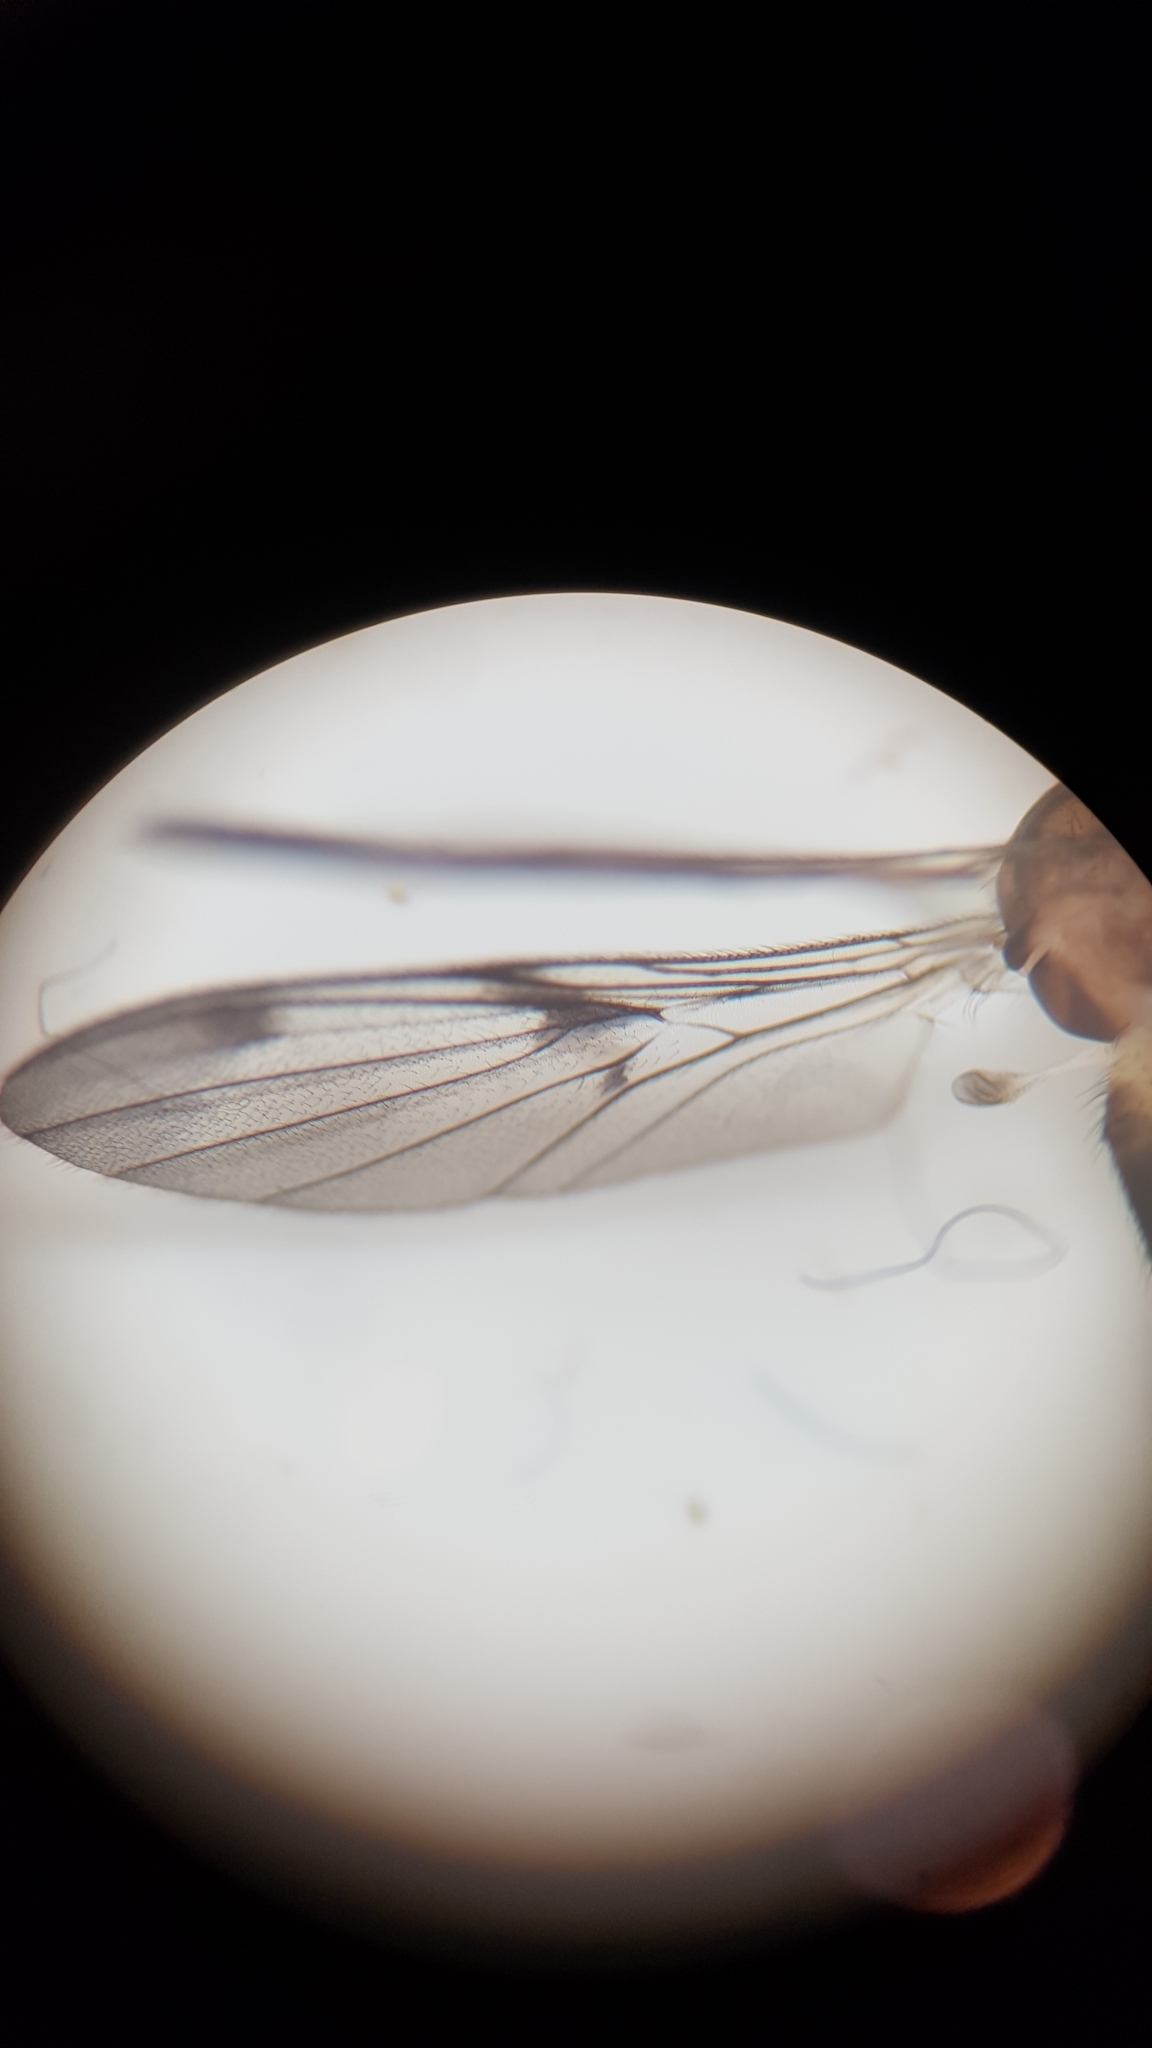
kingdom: Animalia
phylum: Arthropoda
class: Insecta
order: Diptera
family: Keroplatidae
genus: Macrocera
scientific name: Macrocera scoparia
